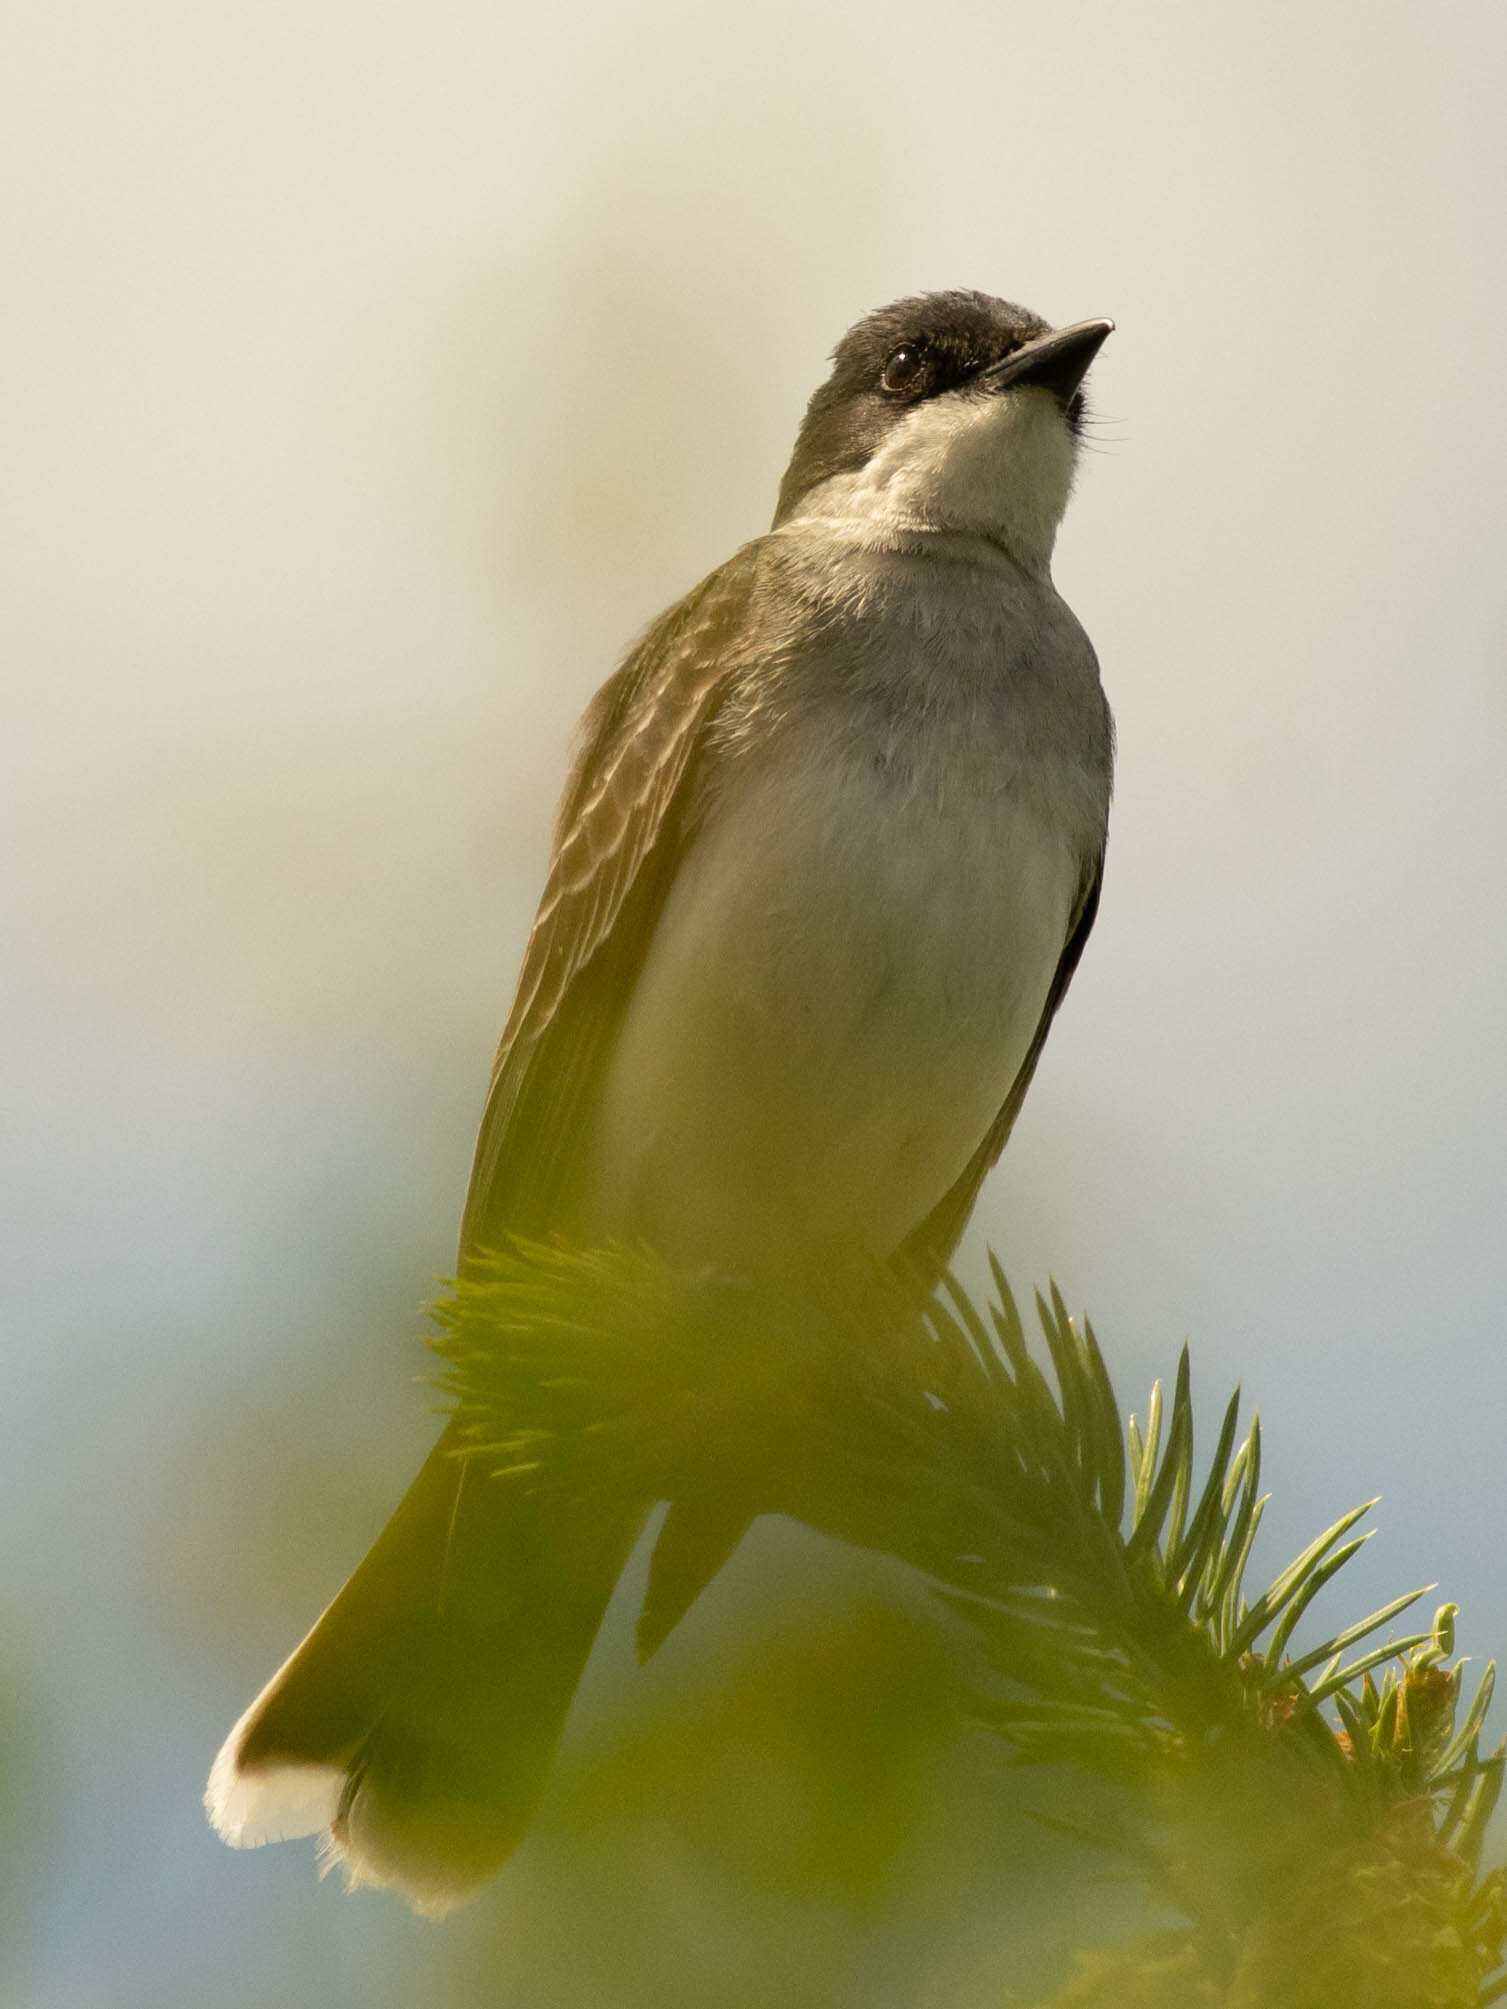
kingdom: Animalia
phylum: Chordata
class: Aves
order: Passeriformes
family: Tyrannidae
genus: Tyrannus
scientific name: Tyrannus tyrannus
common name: Eastern kingbird
